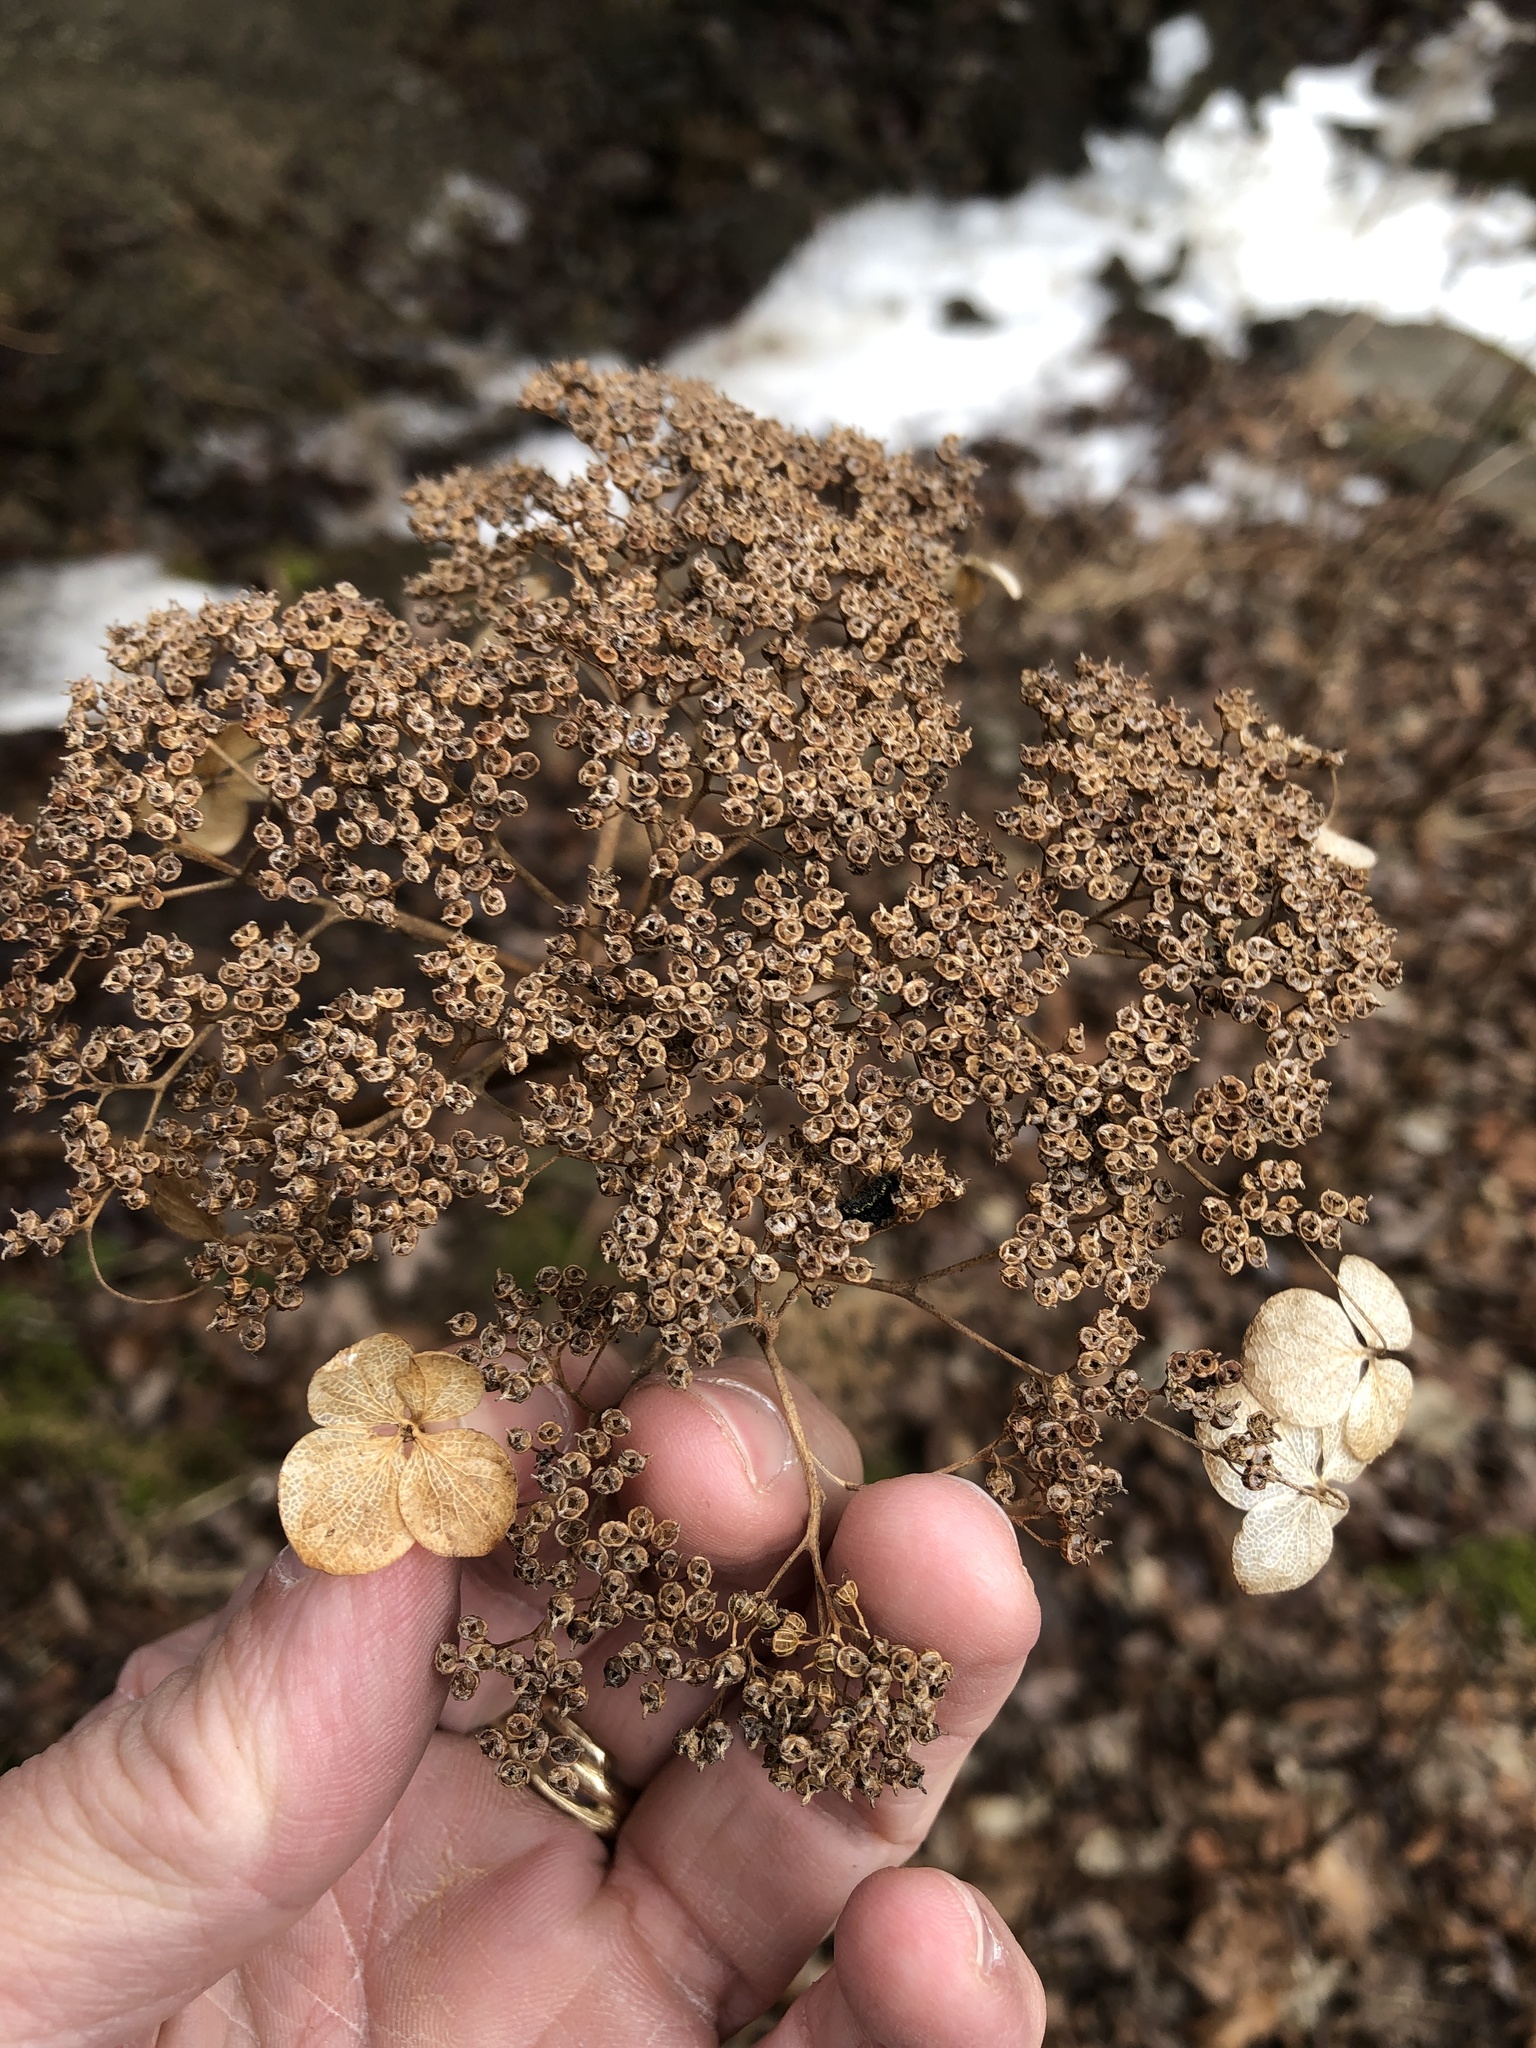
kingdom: Plantae
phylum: Tracheophyta
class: Magnoliopsida
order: Cornales
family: Hydrangeaceae
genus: Hydrangea
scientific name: Hydrangea arborescens
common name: Sevenbark
